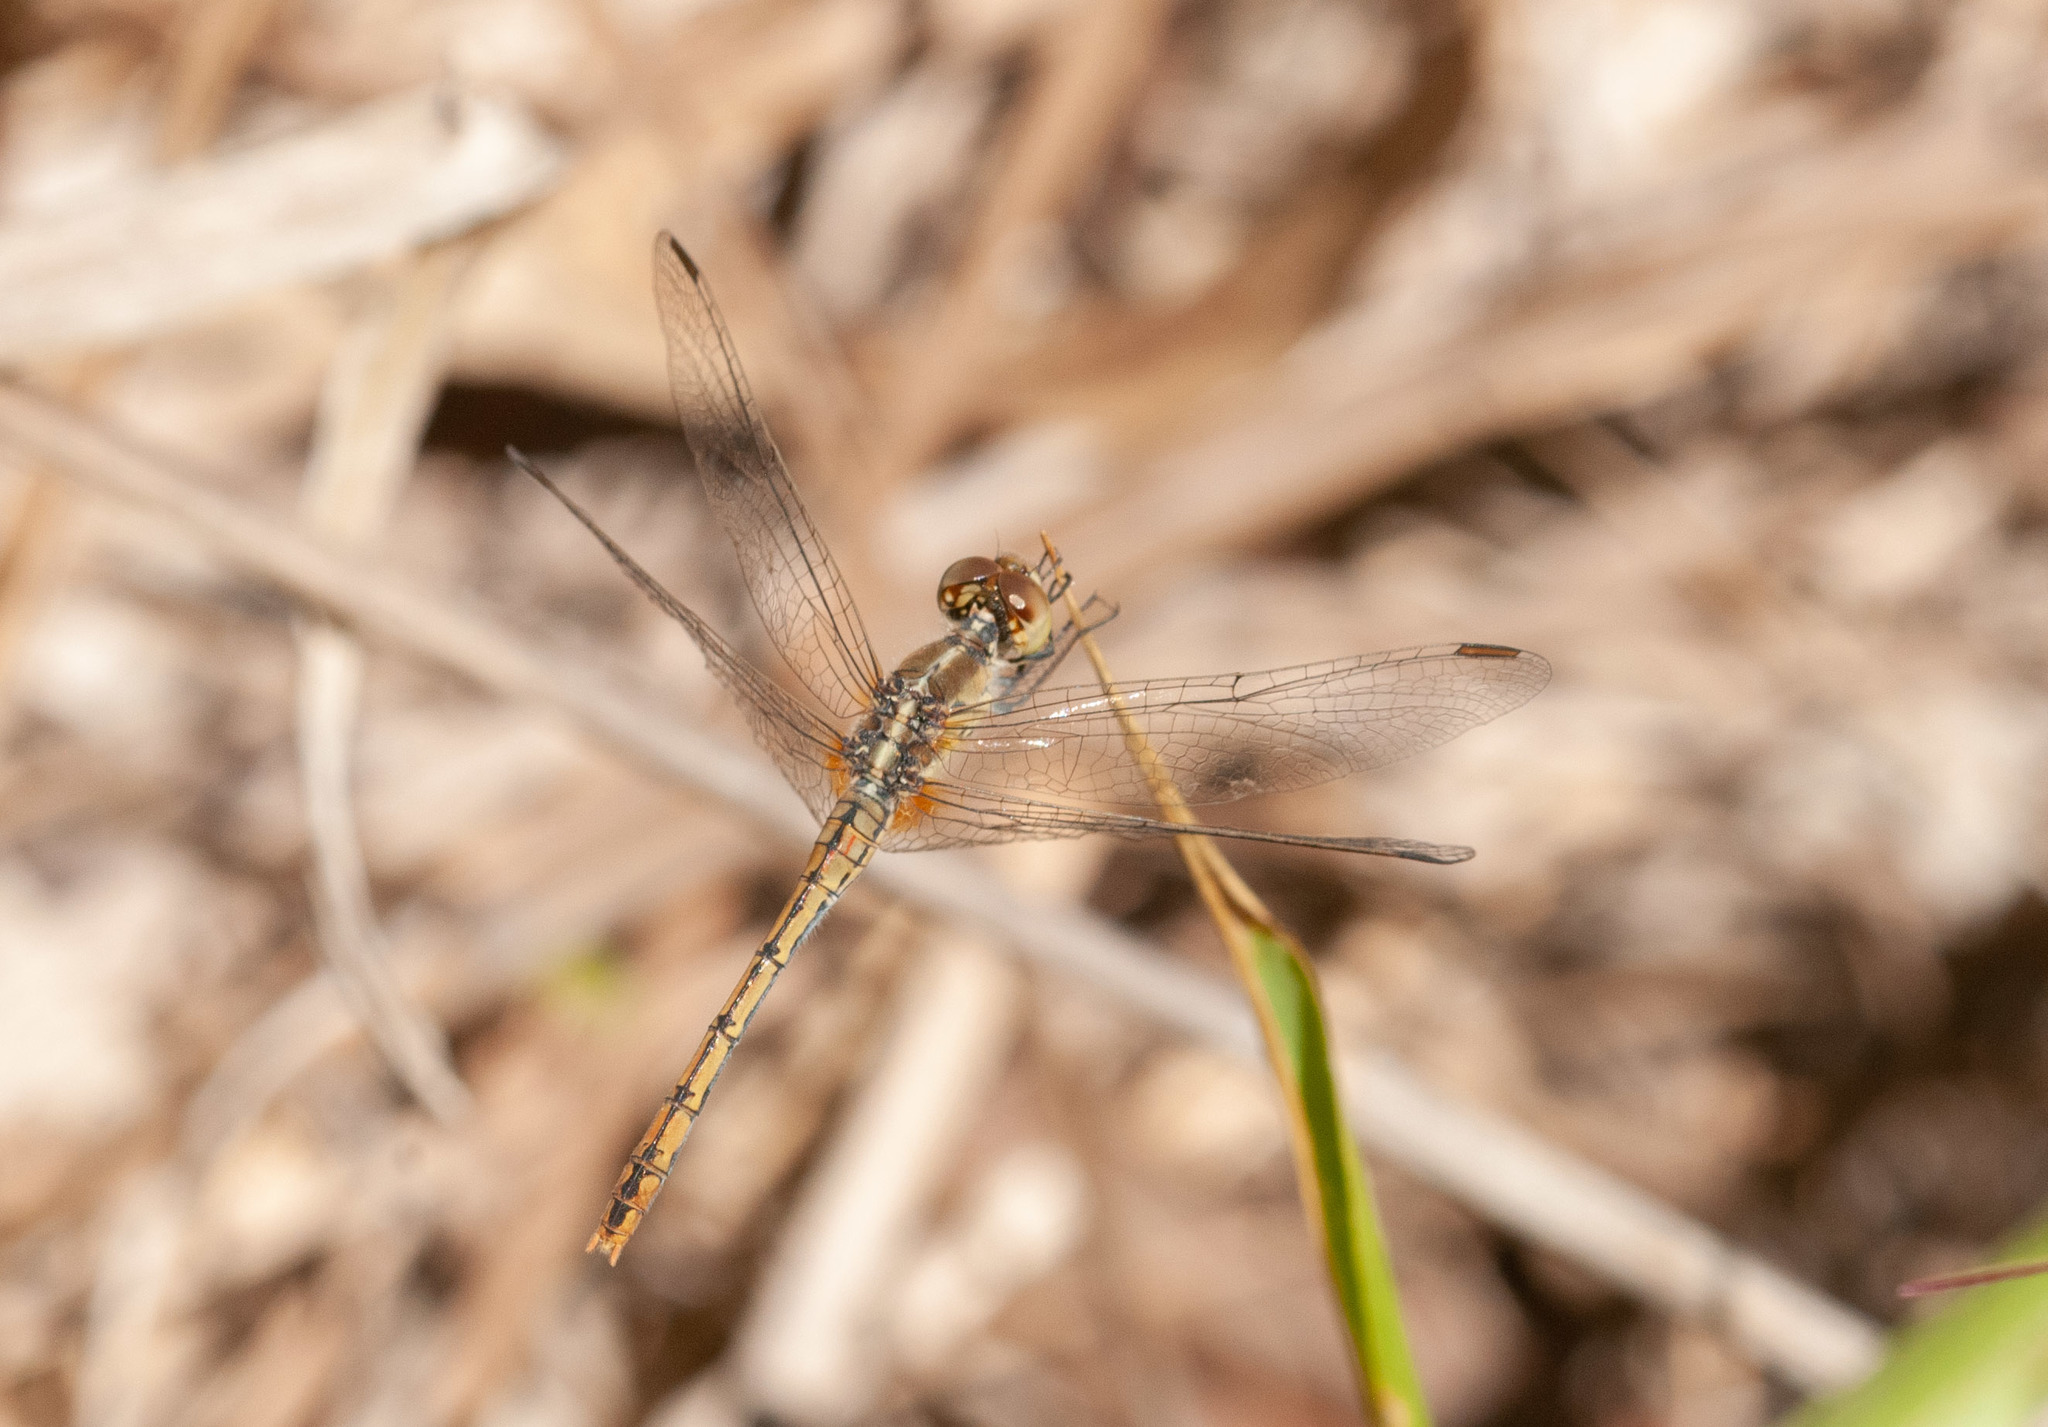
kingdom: Animalia
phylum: Arthropoda
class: Insecta
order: Odonata
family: Libellulidae
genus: Diplacodes
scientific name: Diplacodes bipunctata
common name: Red percher dragonfly
